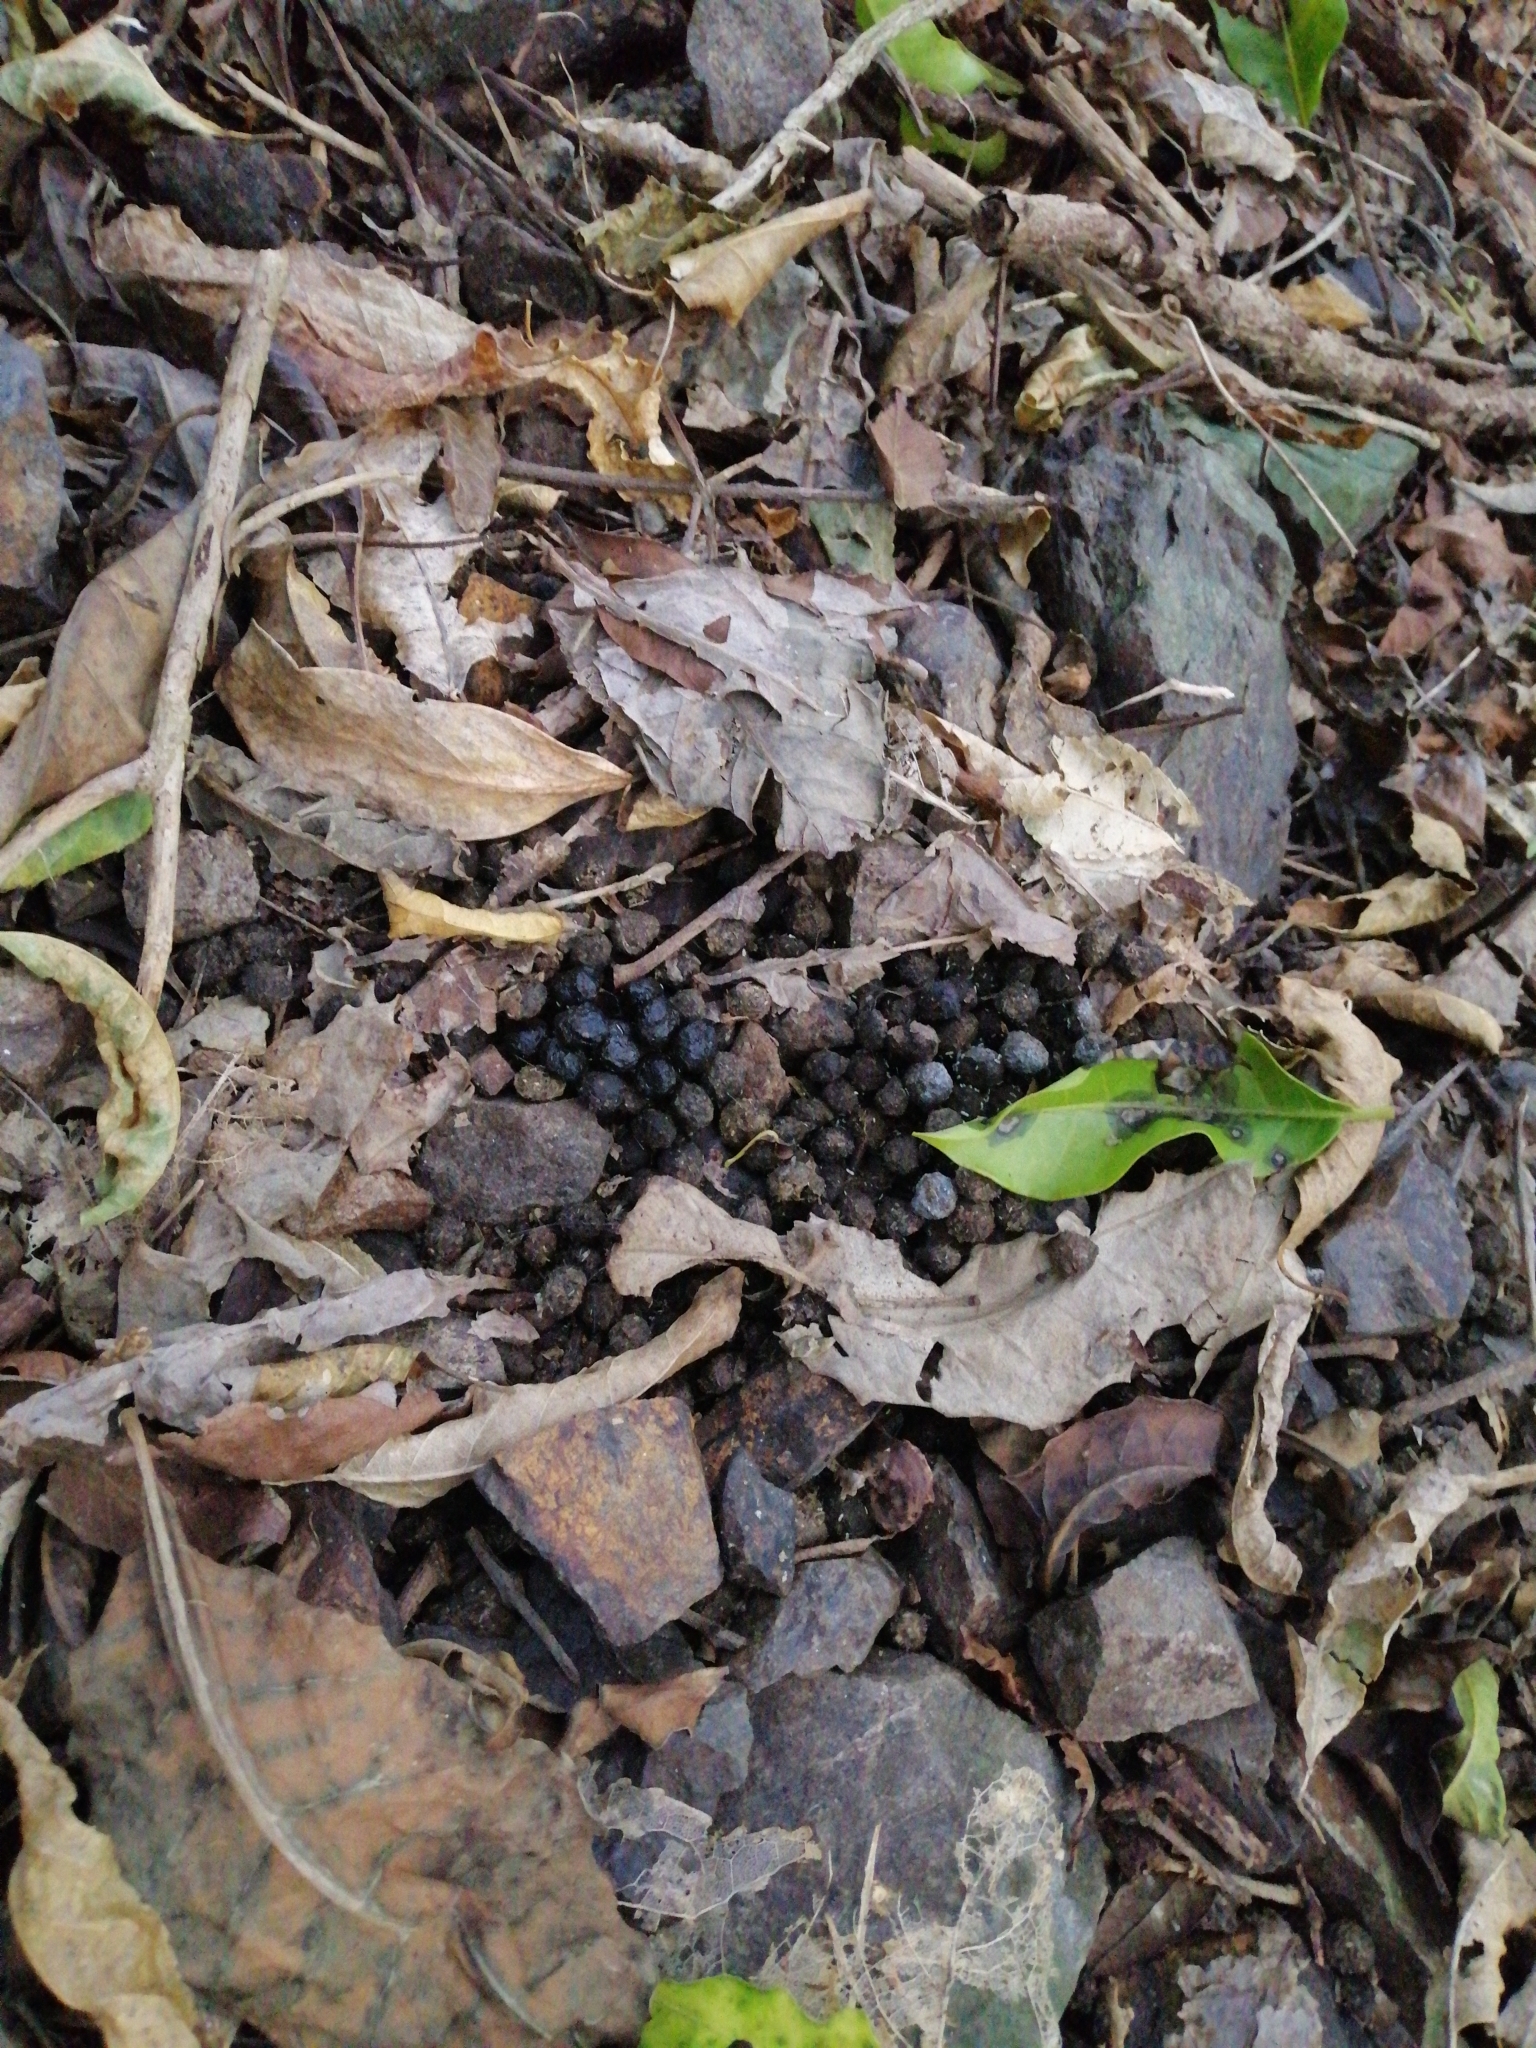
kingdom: Animalia
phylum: Chordata
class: Mammalia
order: Lagomorpha
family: Leporidae
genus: Oryctolagus
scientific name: Oryctolagus cuniculus
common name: European rabbit
